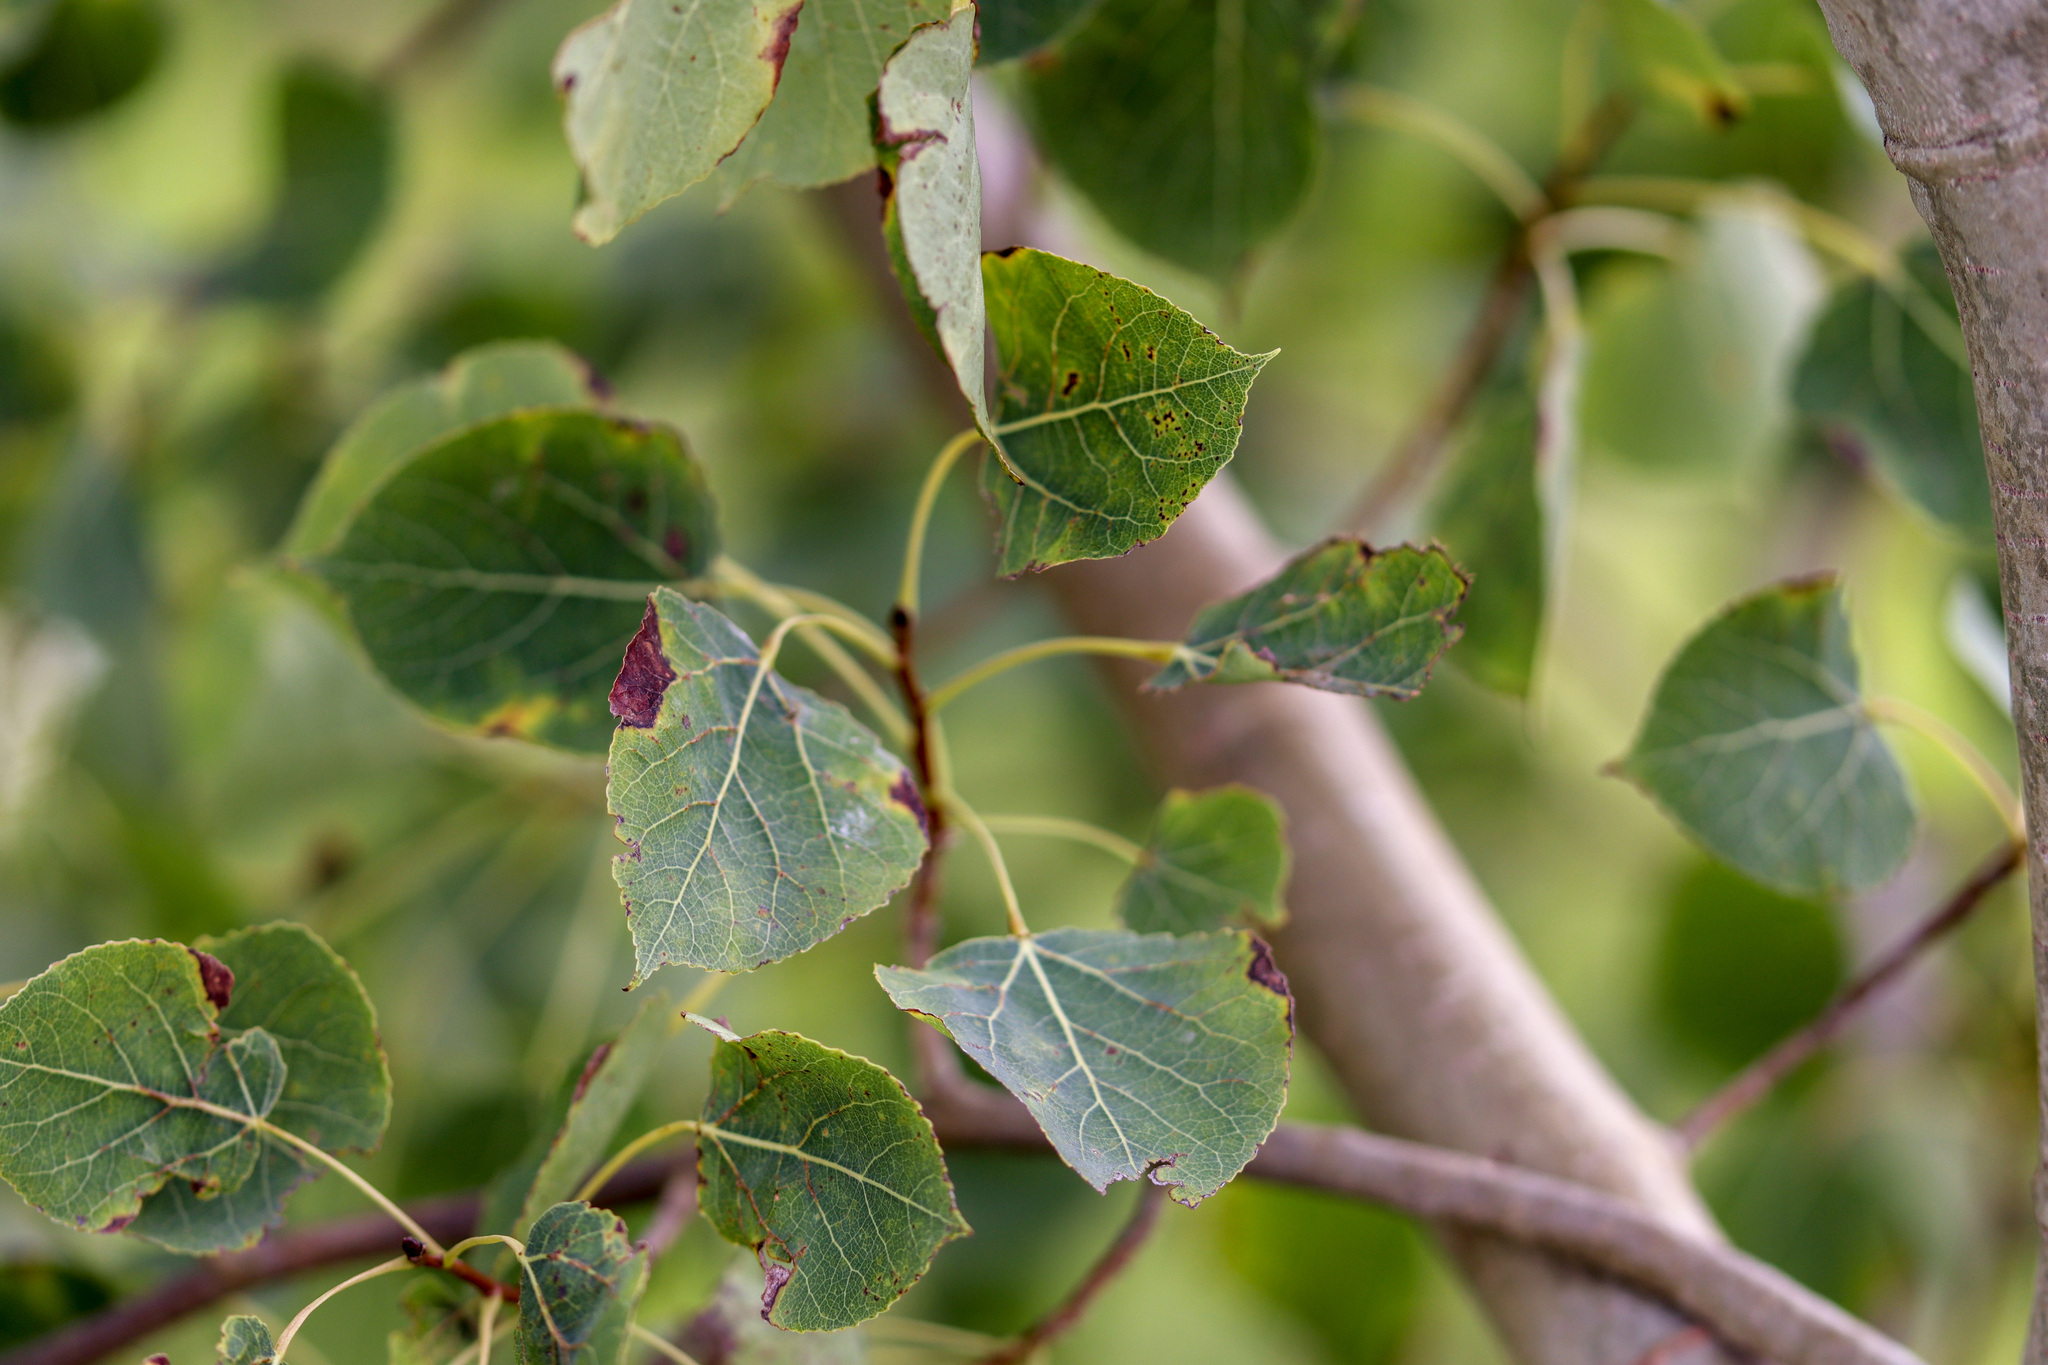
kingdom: Plantae
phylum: Tracheophyta
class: Magnoliopsida
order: Malpighiales
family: Salicaceae
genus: Populus
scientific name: Populus tremuloides
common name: Quaking aspen
